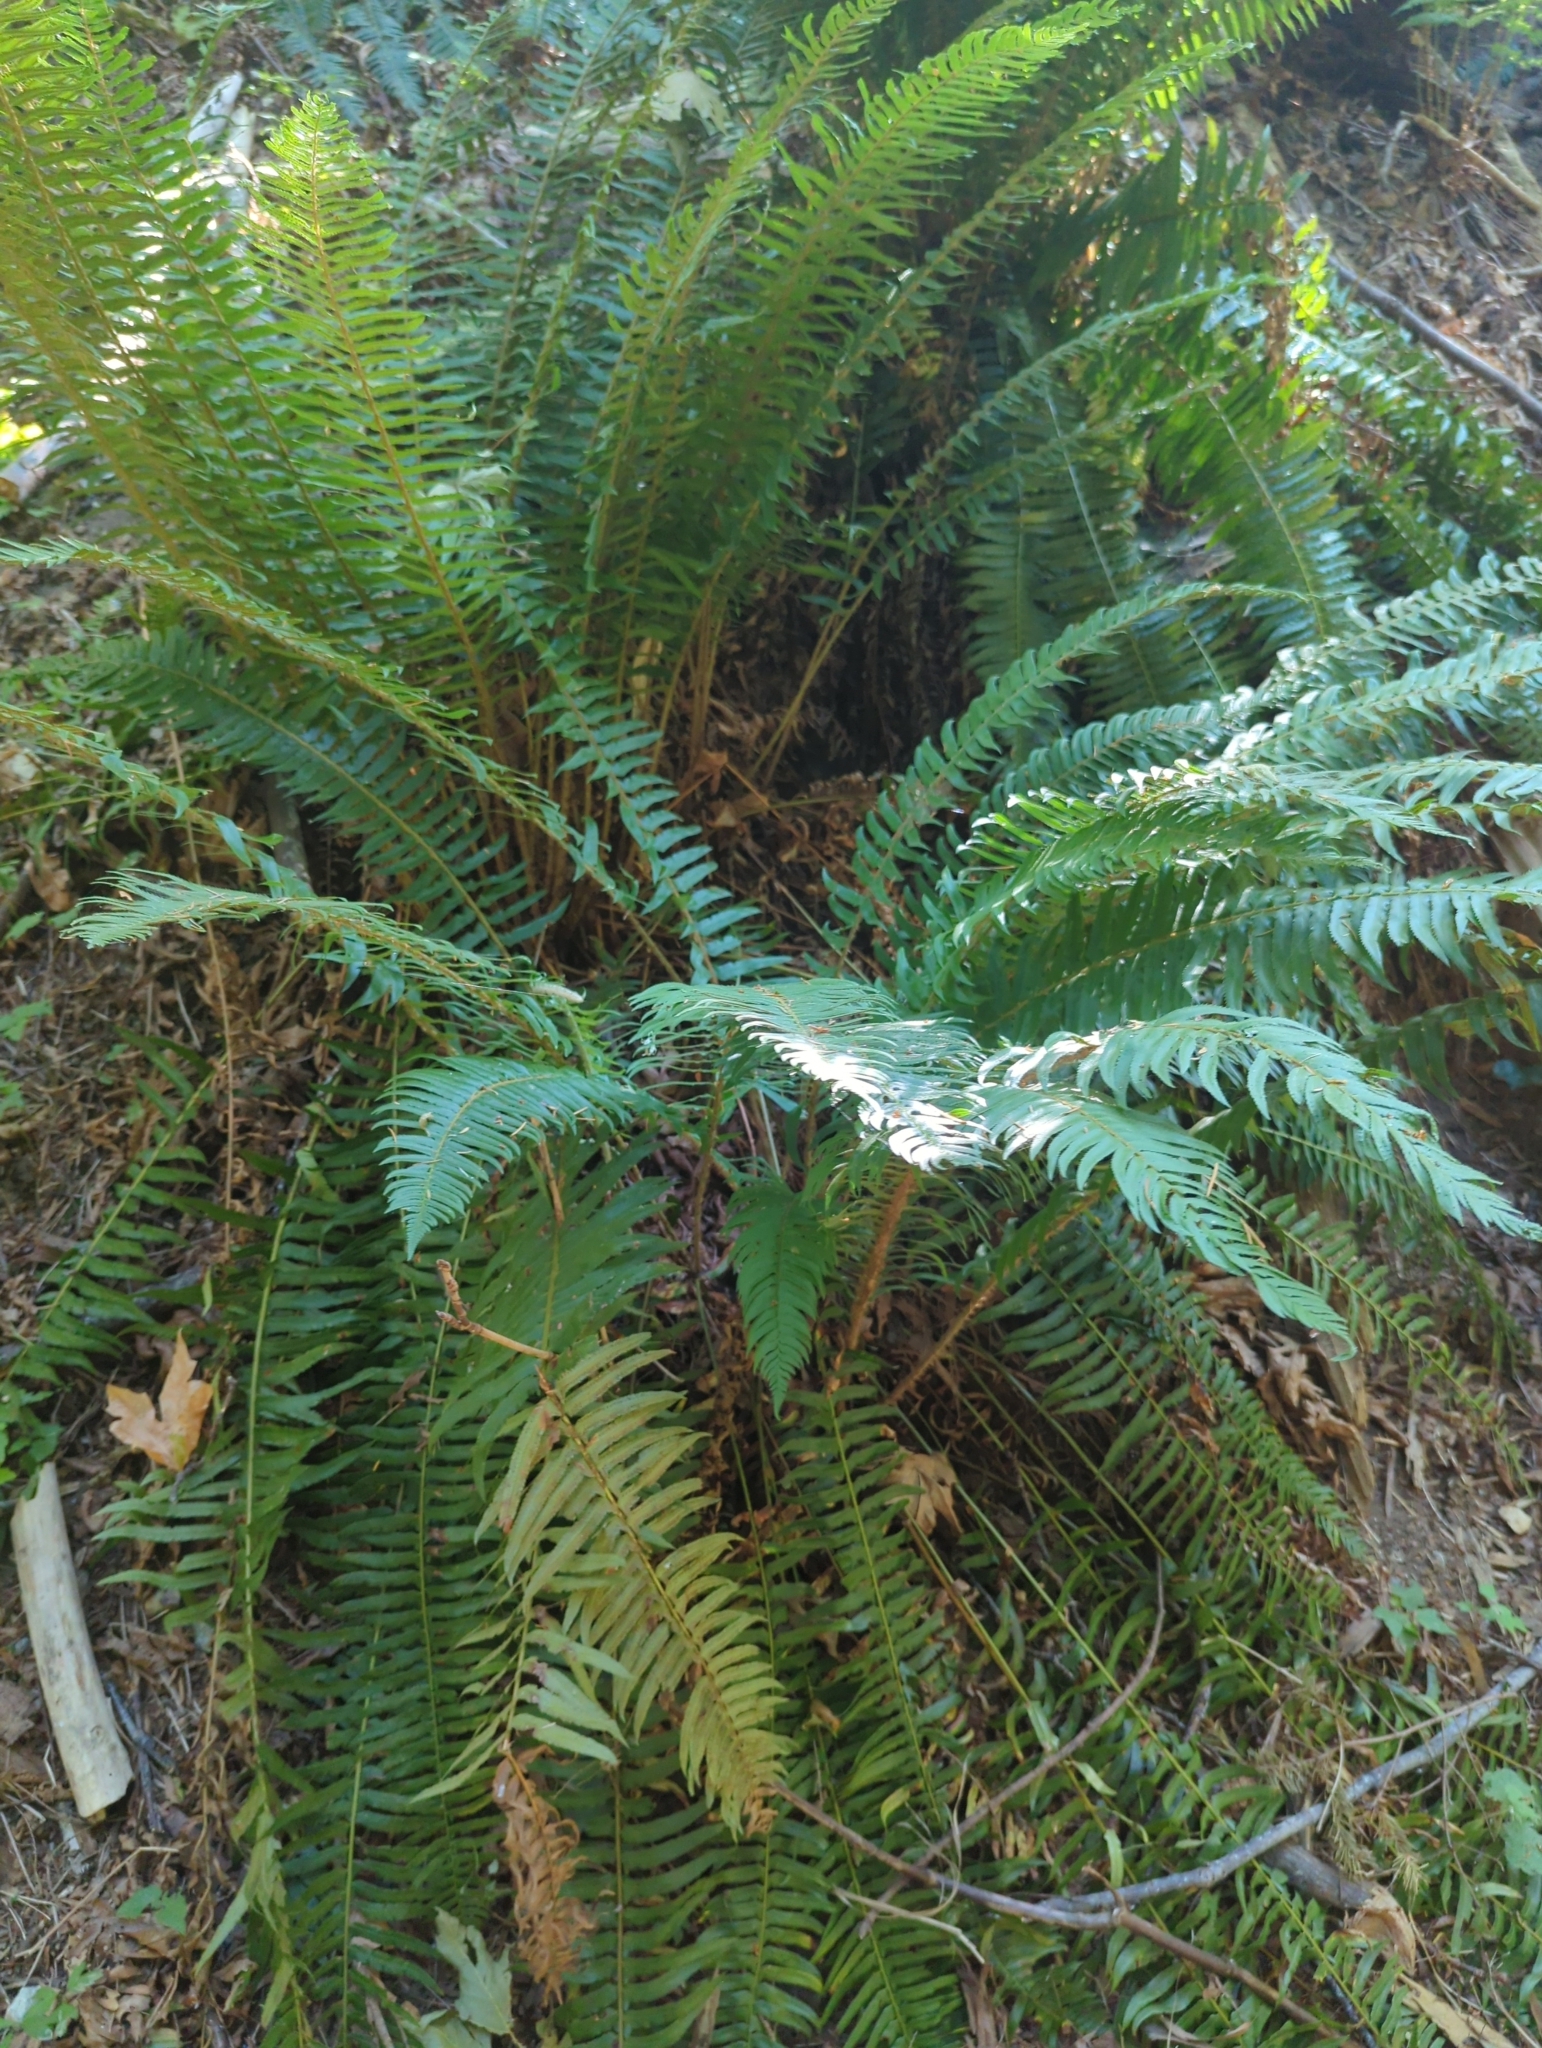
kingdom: Plantae
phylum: Tracheophyta
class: Polypodiopsida
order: Polypodiales
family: Dryopteridaceae
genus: Polystichum
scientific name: Polystichum munitum
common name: Western sword-fern
